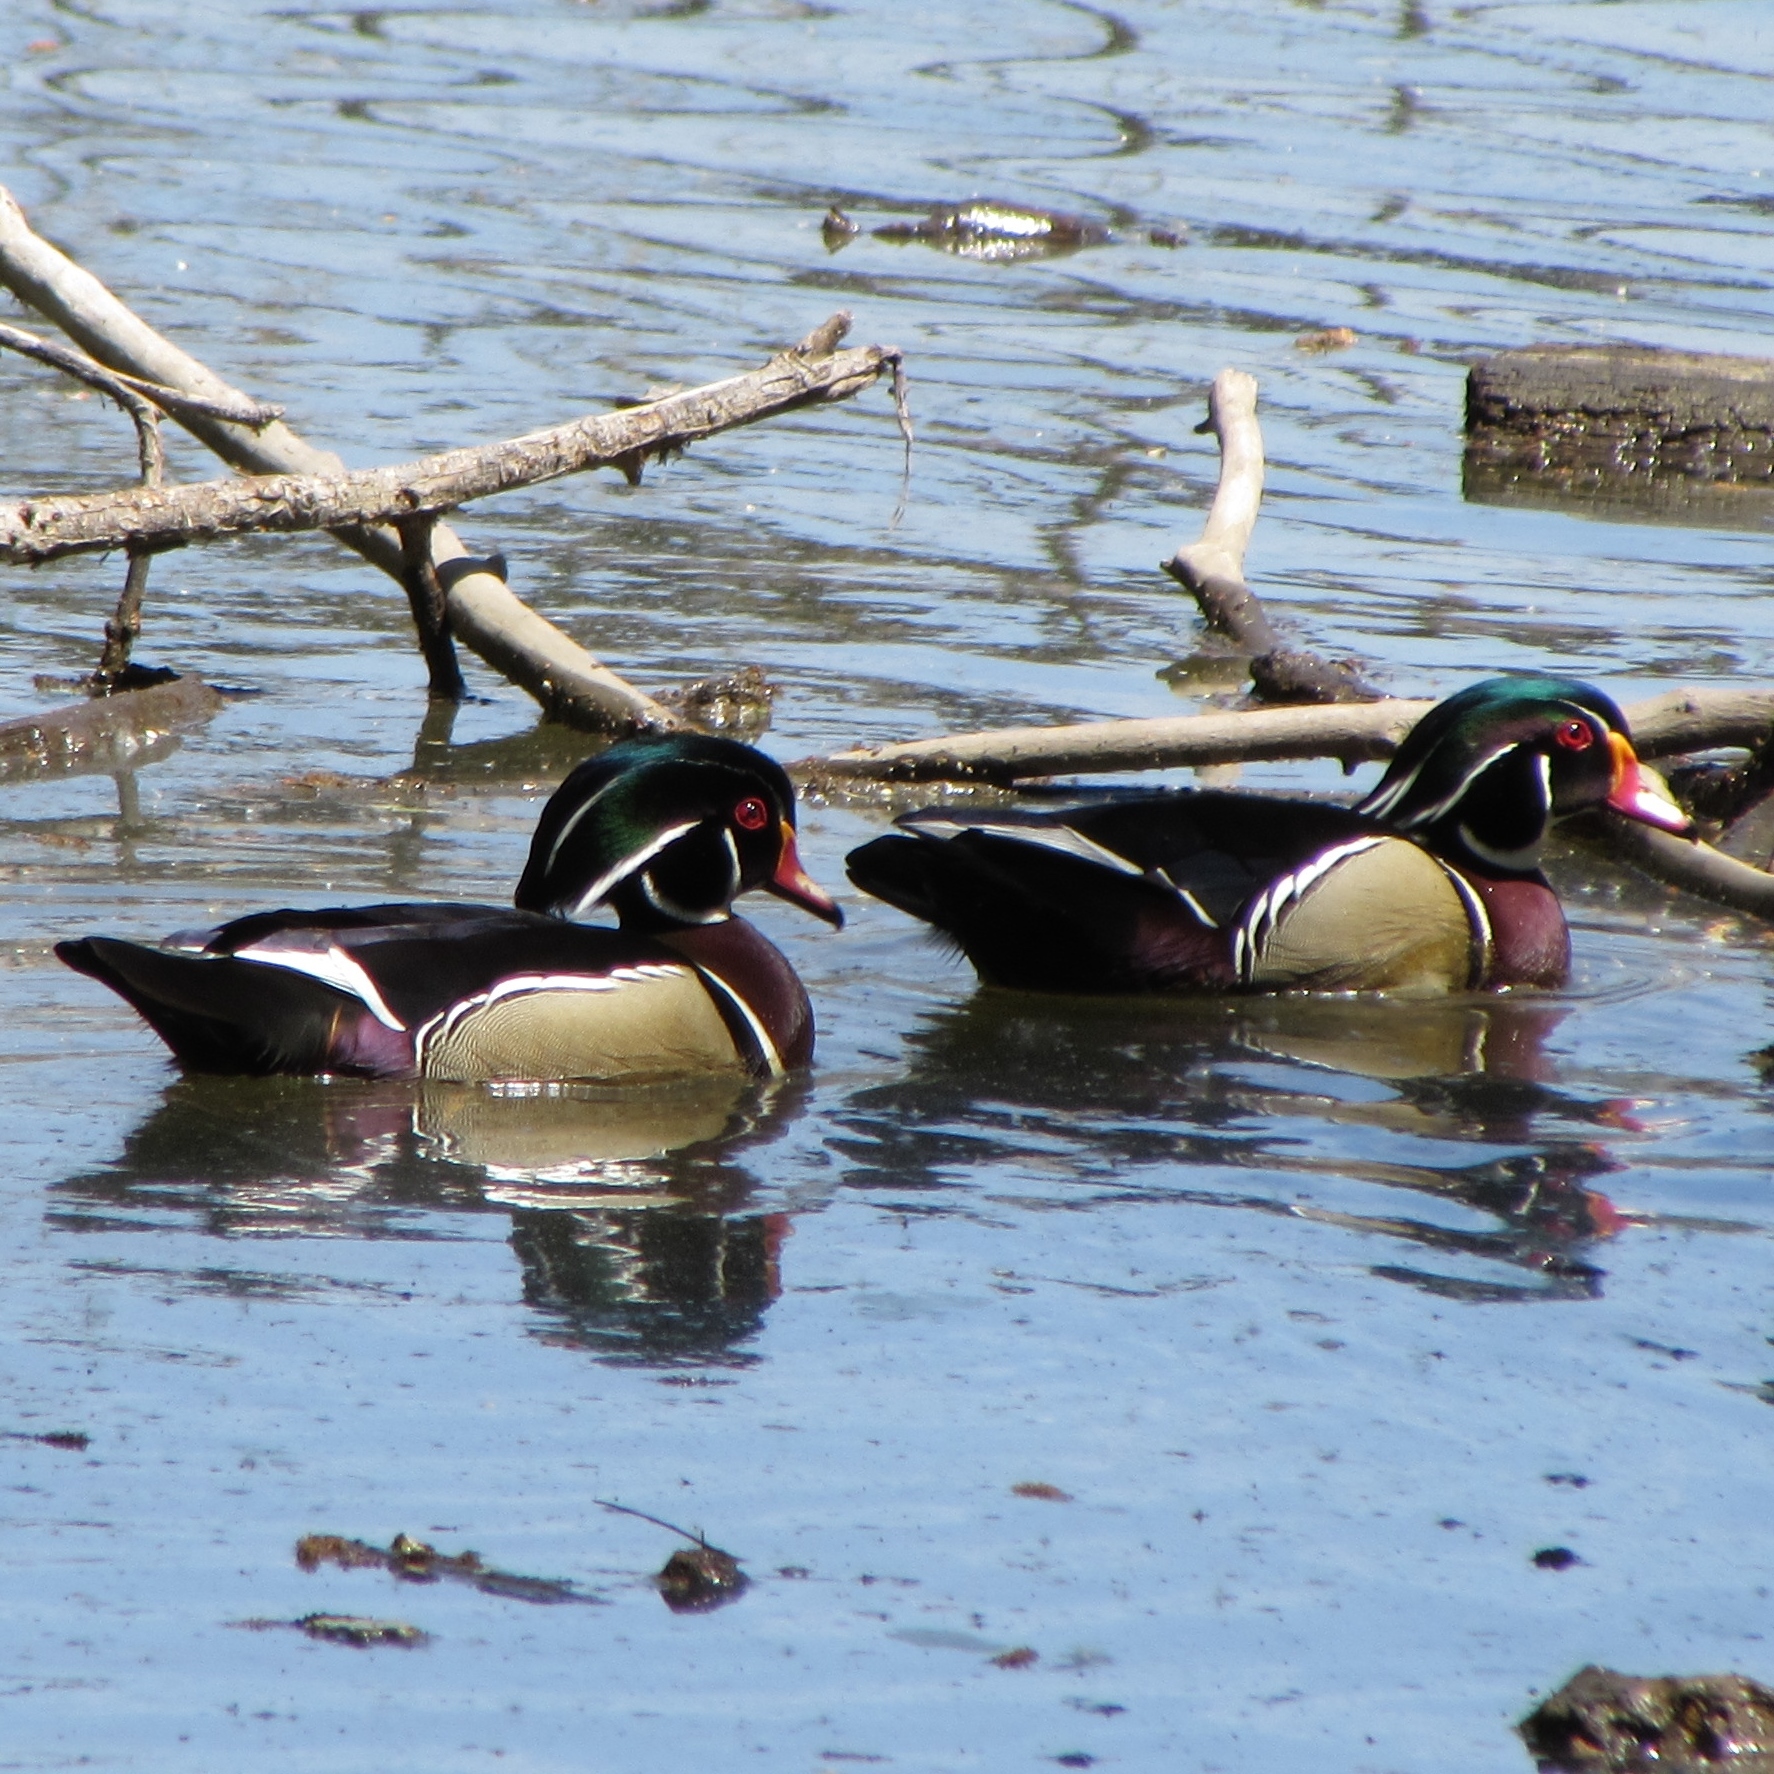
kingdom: Animalia
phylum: Chordata
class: Aves
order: Anseriformes
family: Anatidae
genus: Aix
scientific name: Aix sponsa
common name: Wood duck
